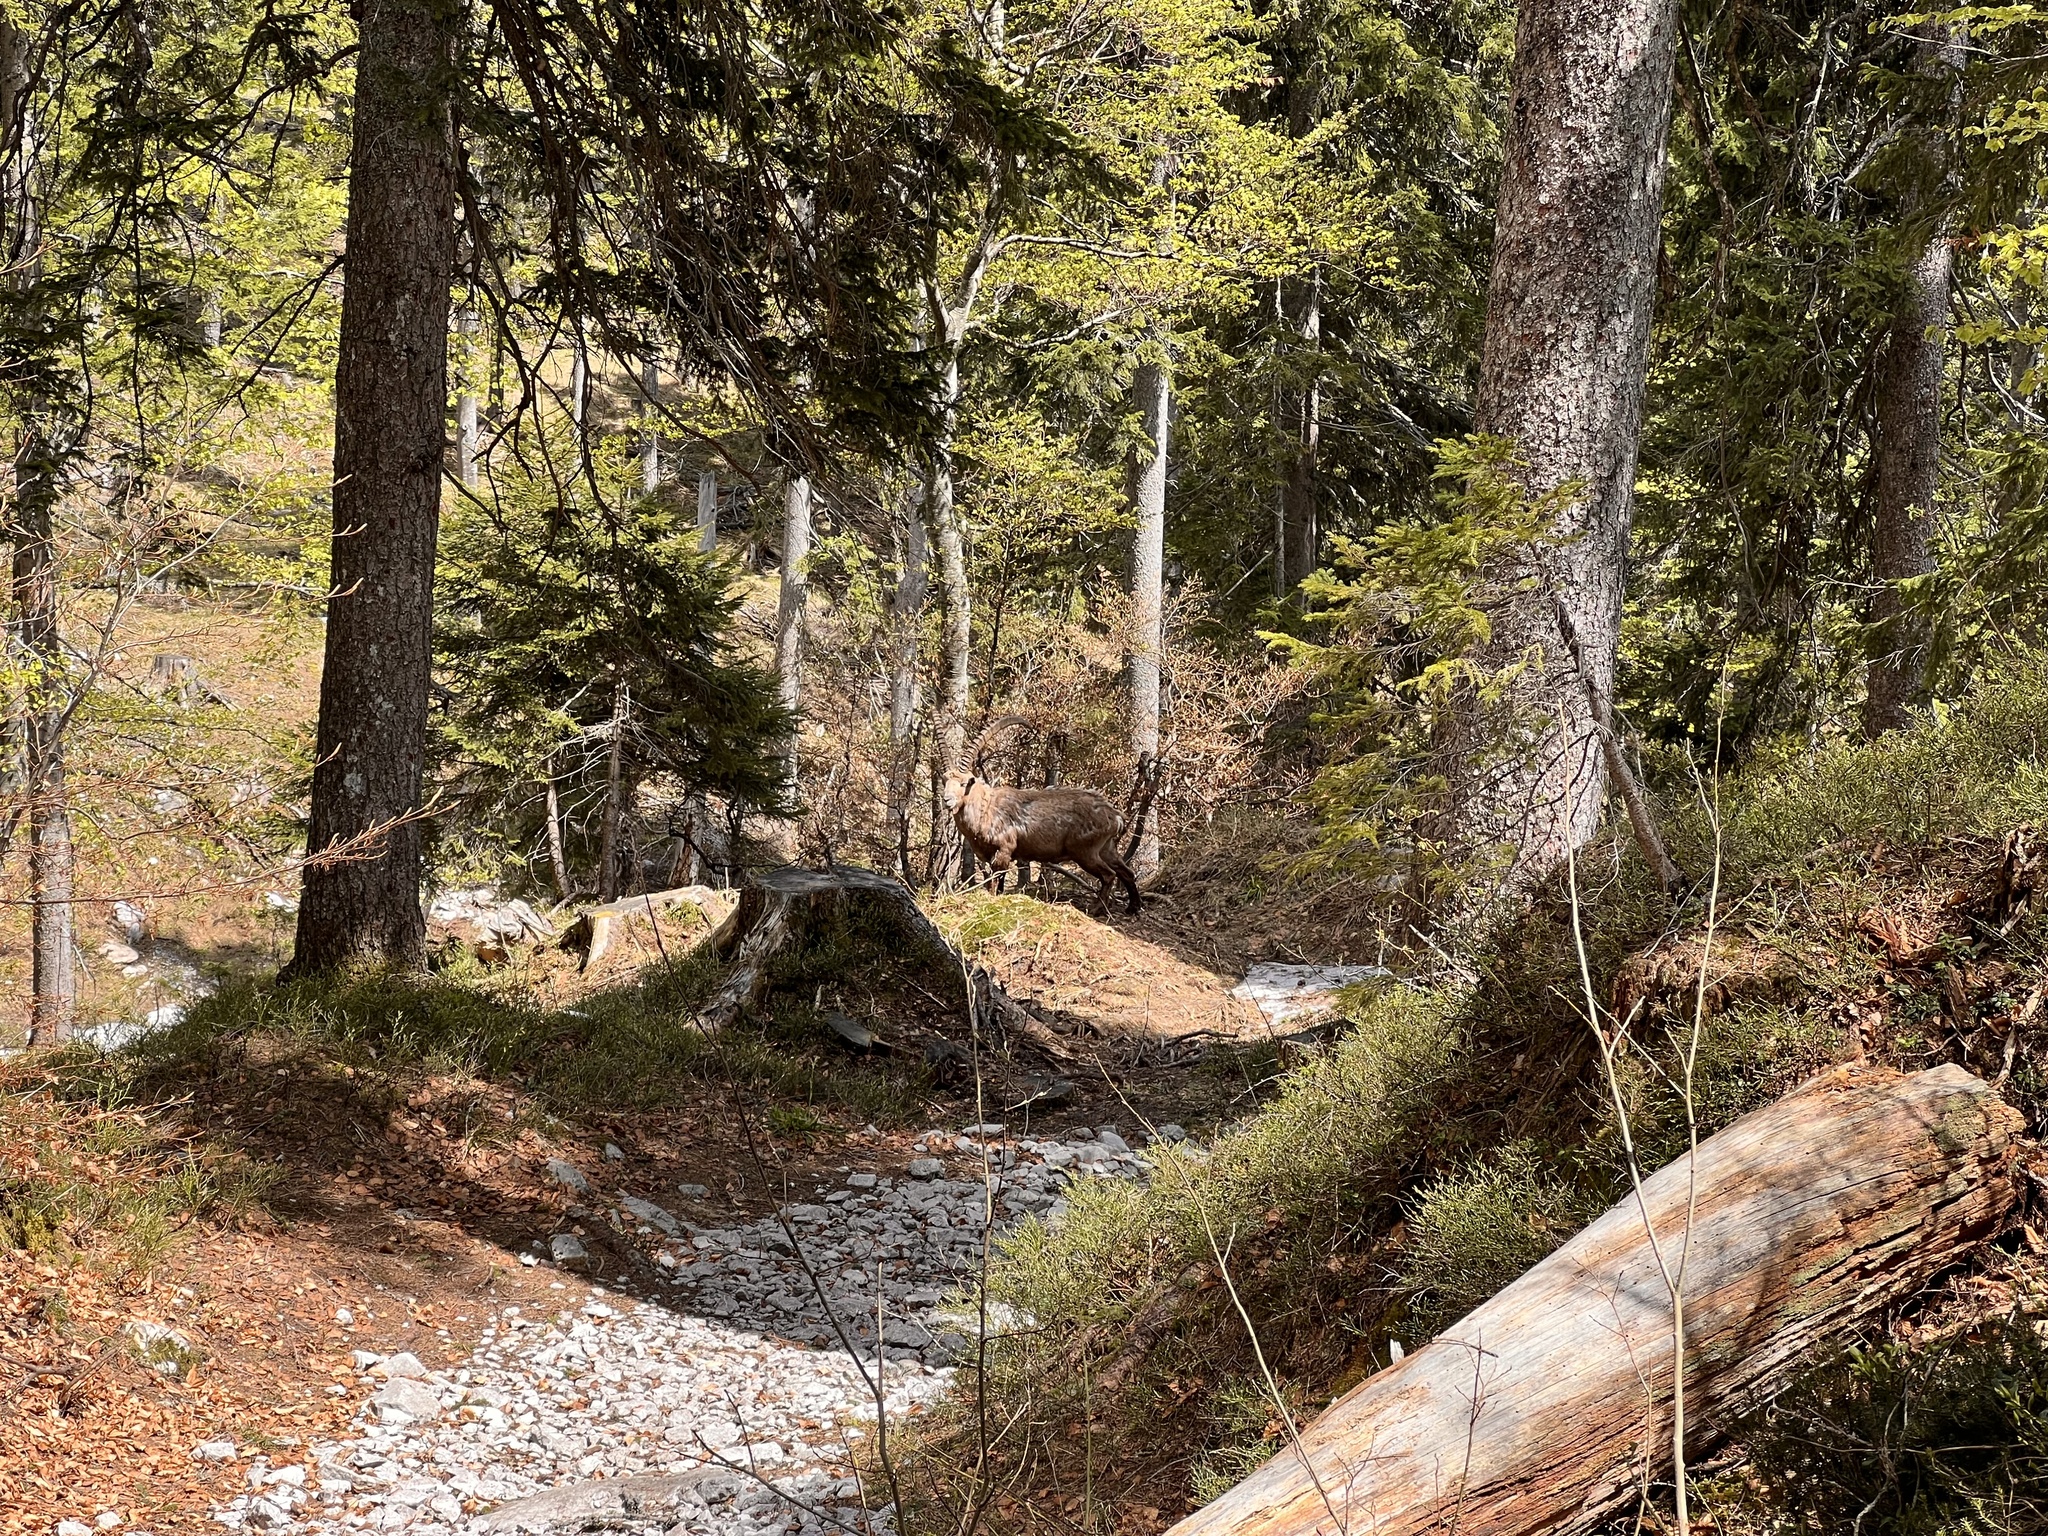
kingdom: Animalia
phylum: Chordata
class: Mammalia
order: Artiodactyla
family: Bovidae
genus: Capra
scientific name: Capra ibex
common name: Alpine ibex
